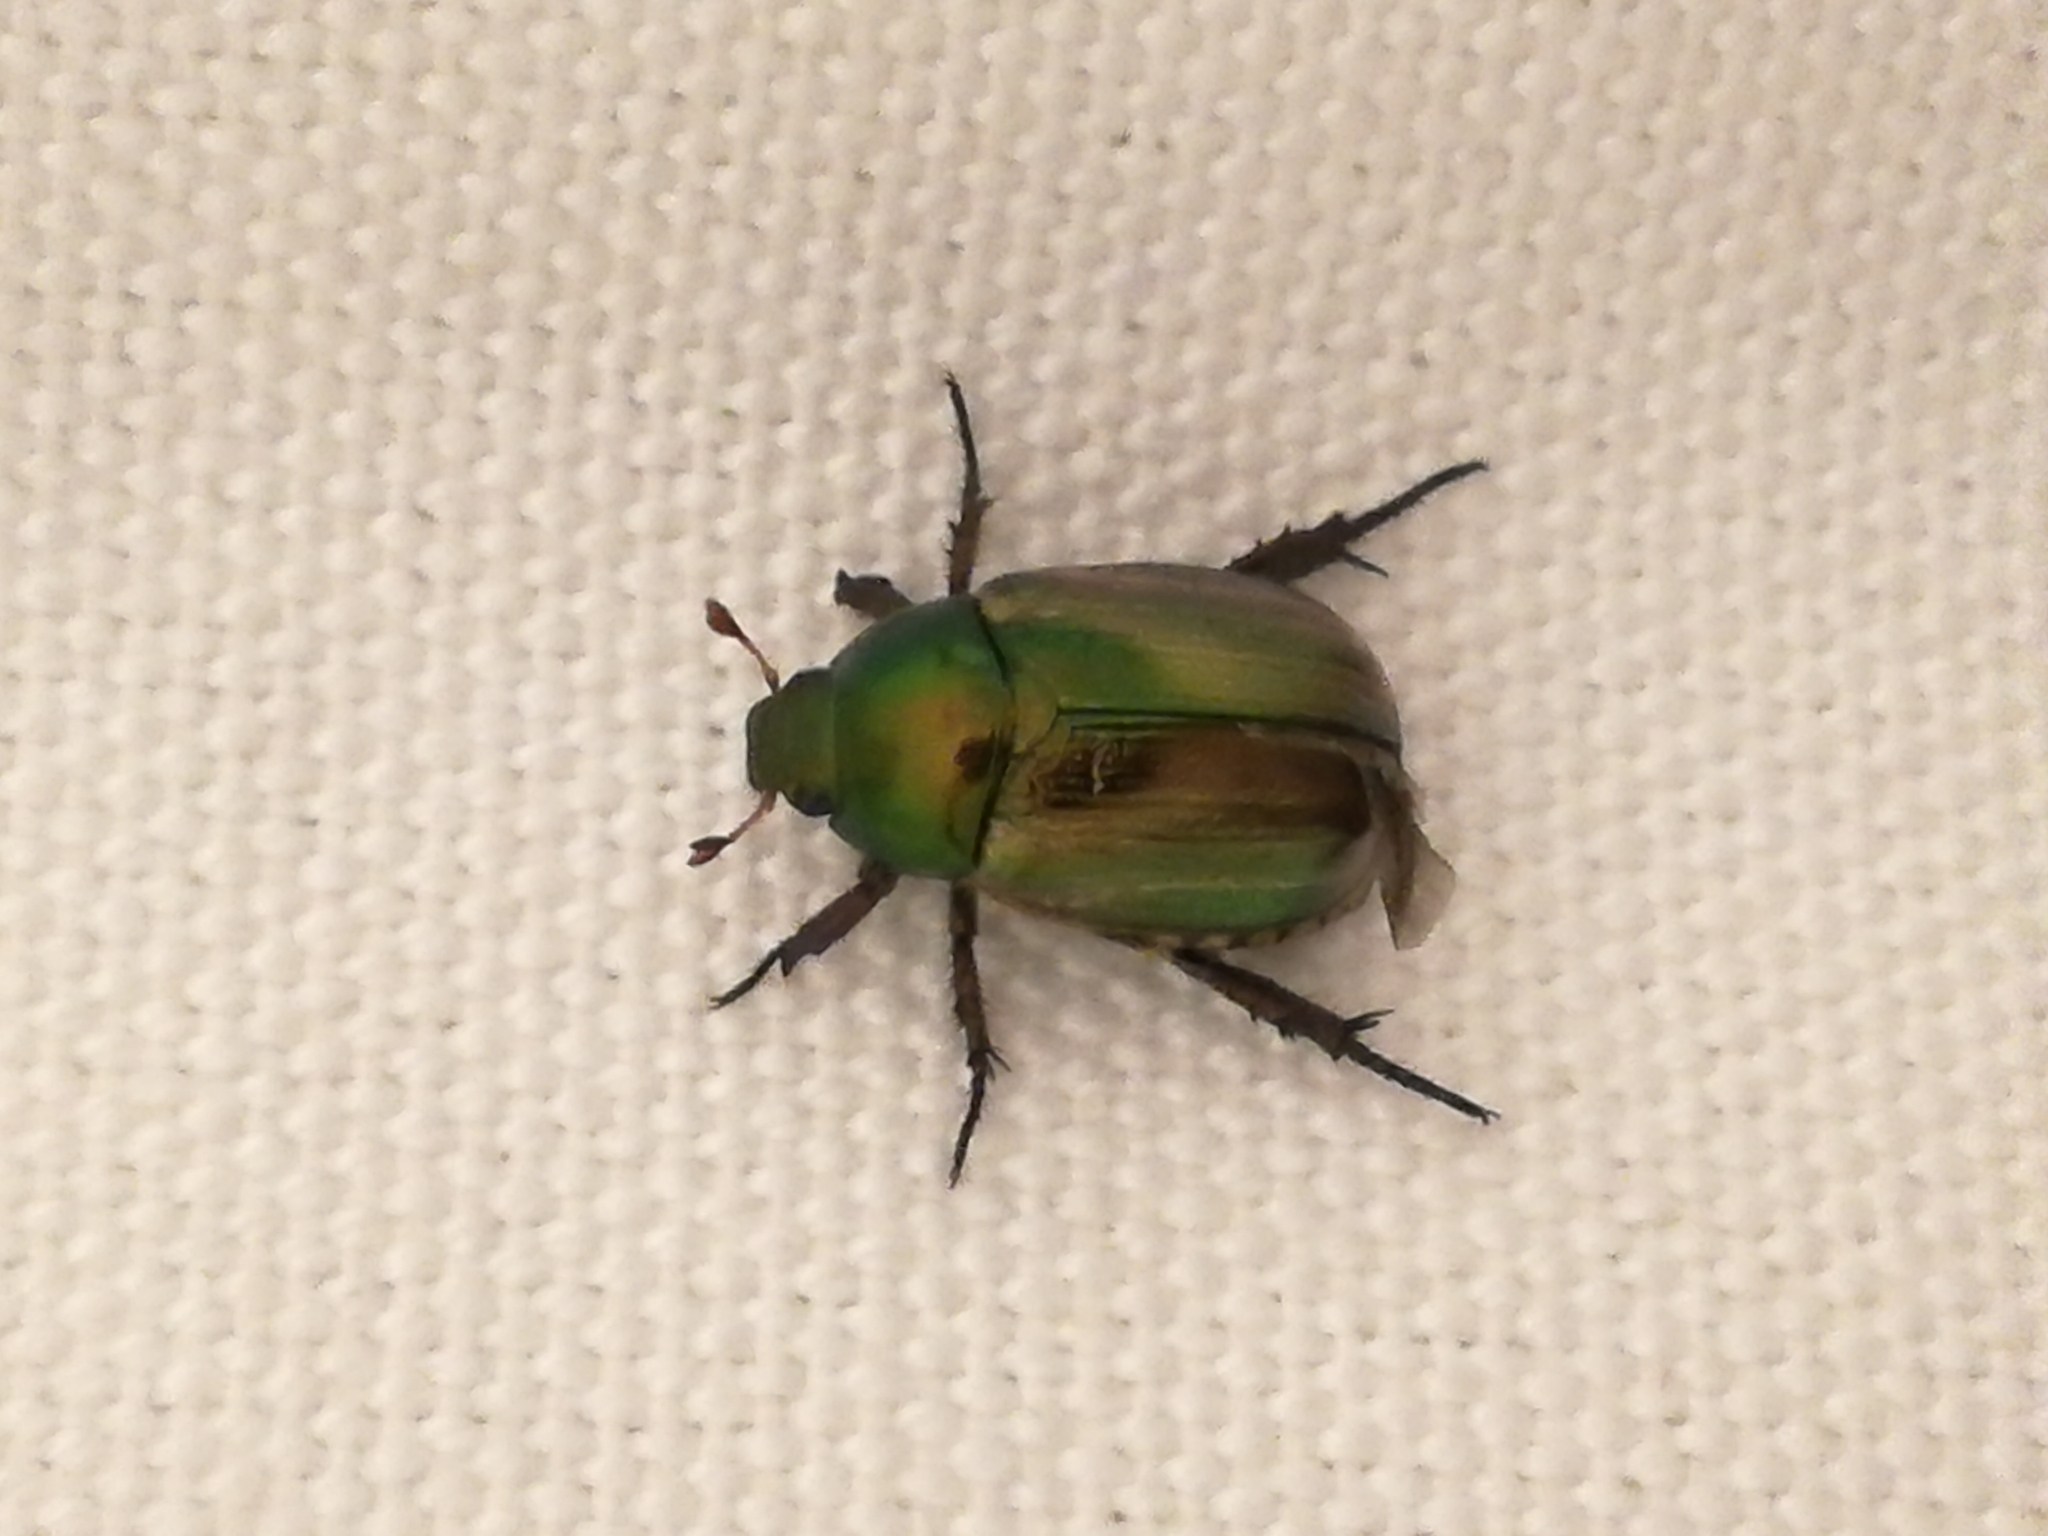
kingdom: Animalia
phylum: Arthropoda
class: Insecta
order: Coleoptera
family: Scarabaeidae
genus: Mimela
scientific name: Mimela junii
